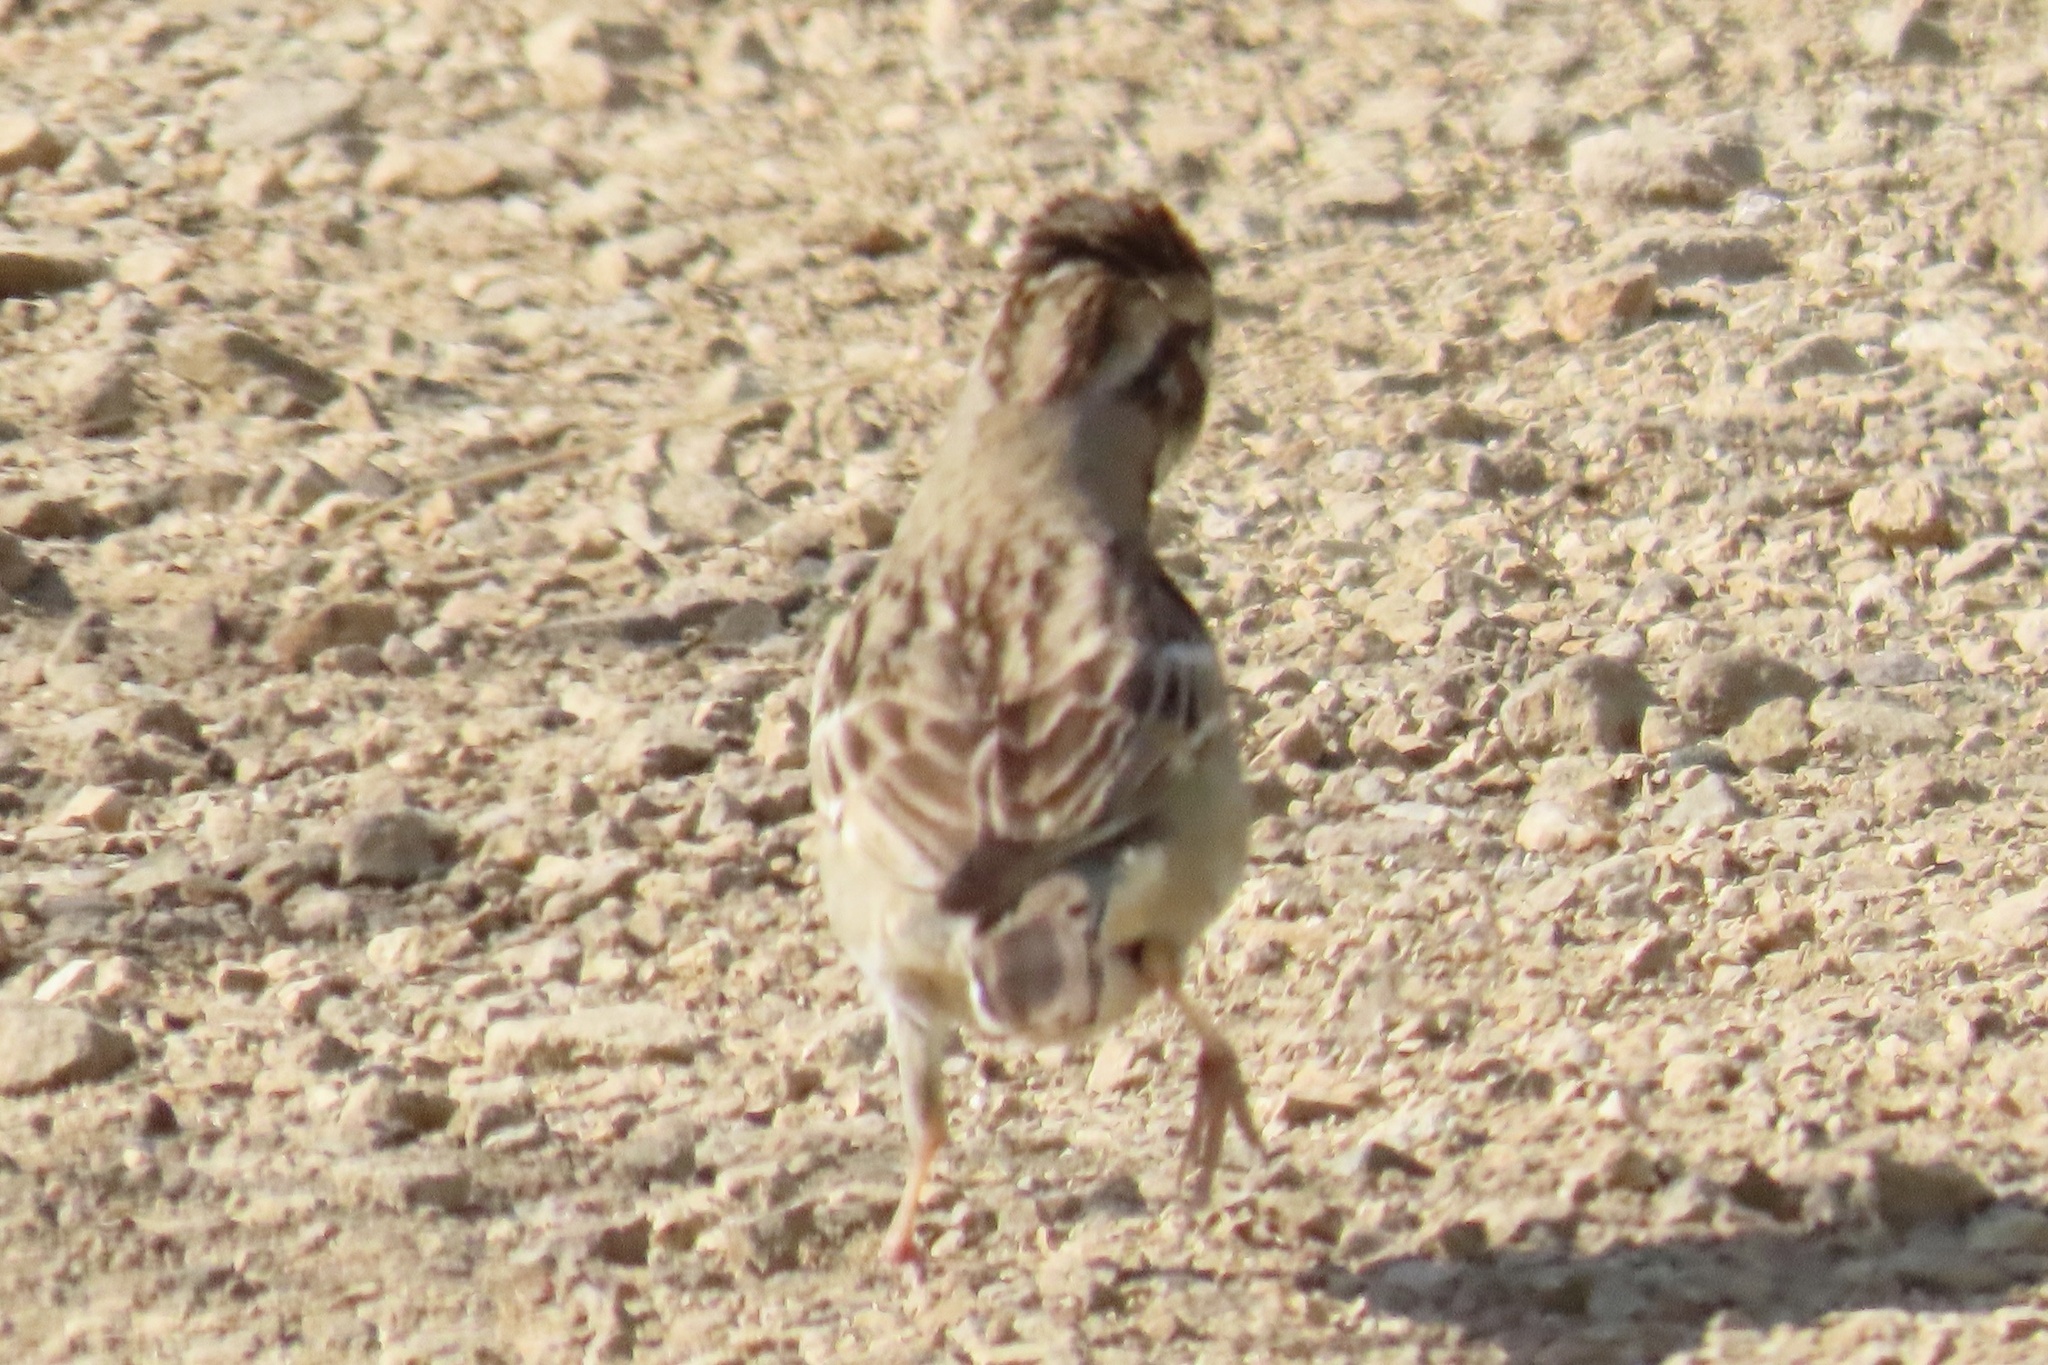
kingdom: Animalia
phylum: Chordata
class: Aves
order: Passeriformes
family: Passerellidae
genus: Chondestes
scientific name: Chondestes grammacus
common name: Lark sparrow
